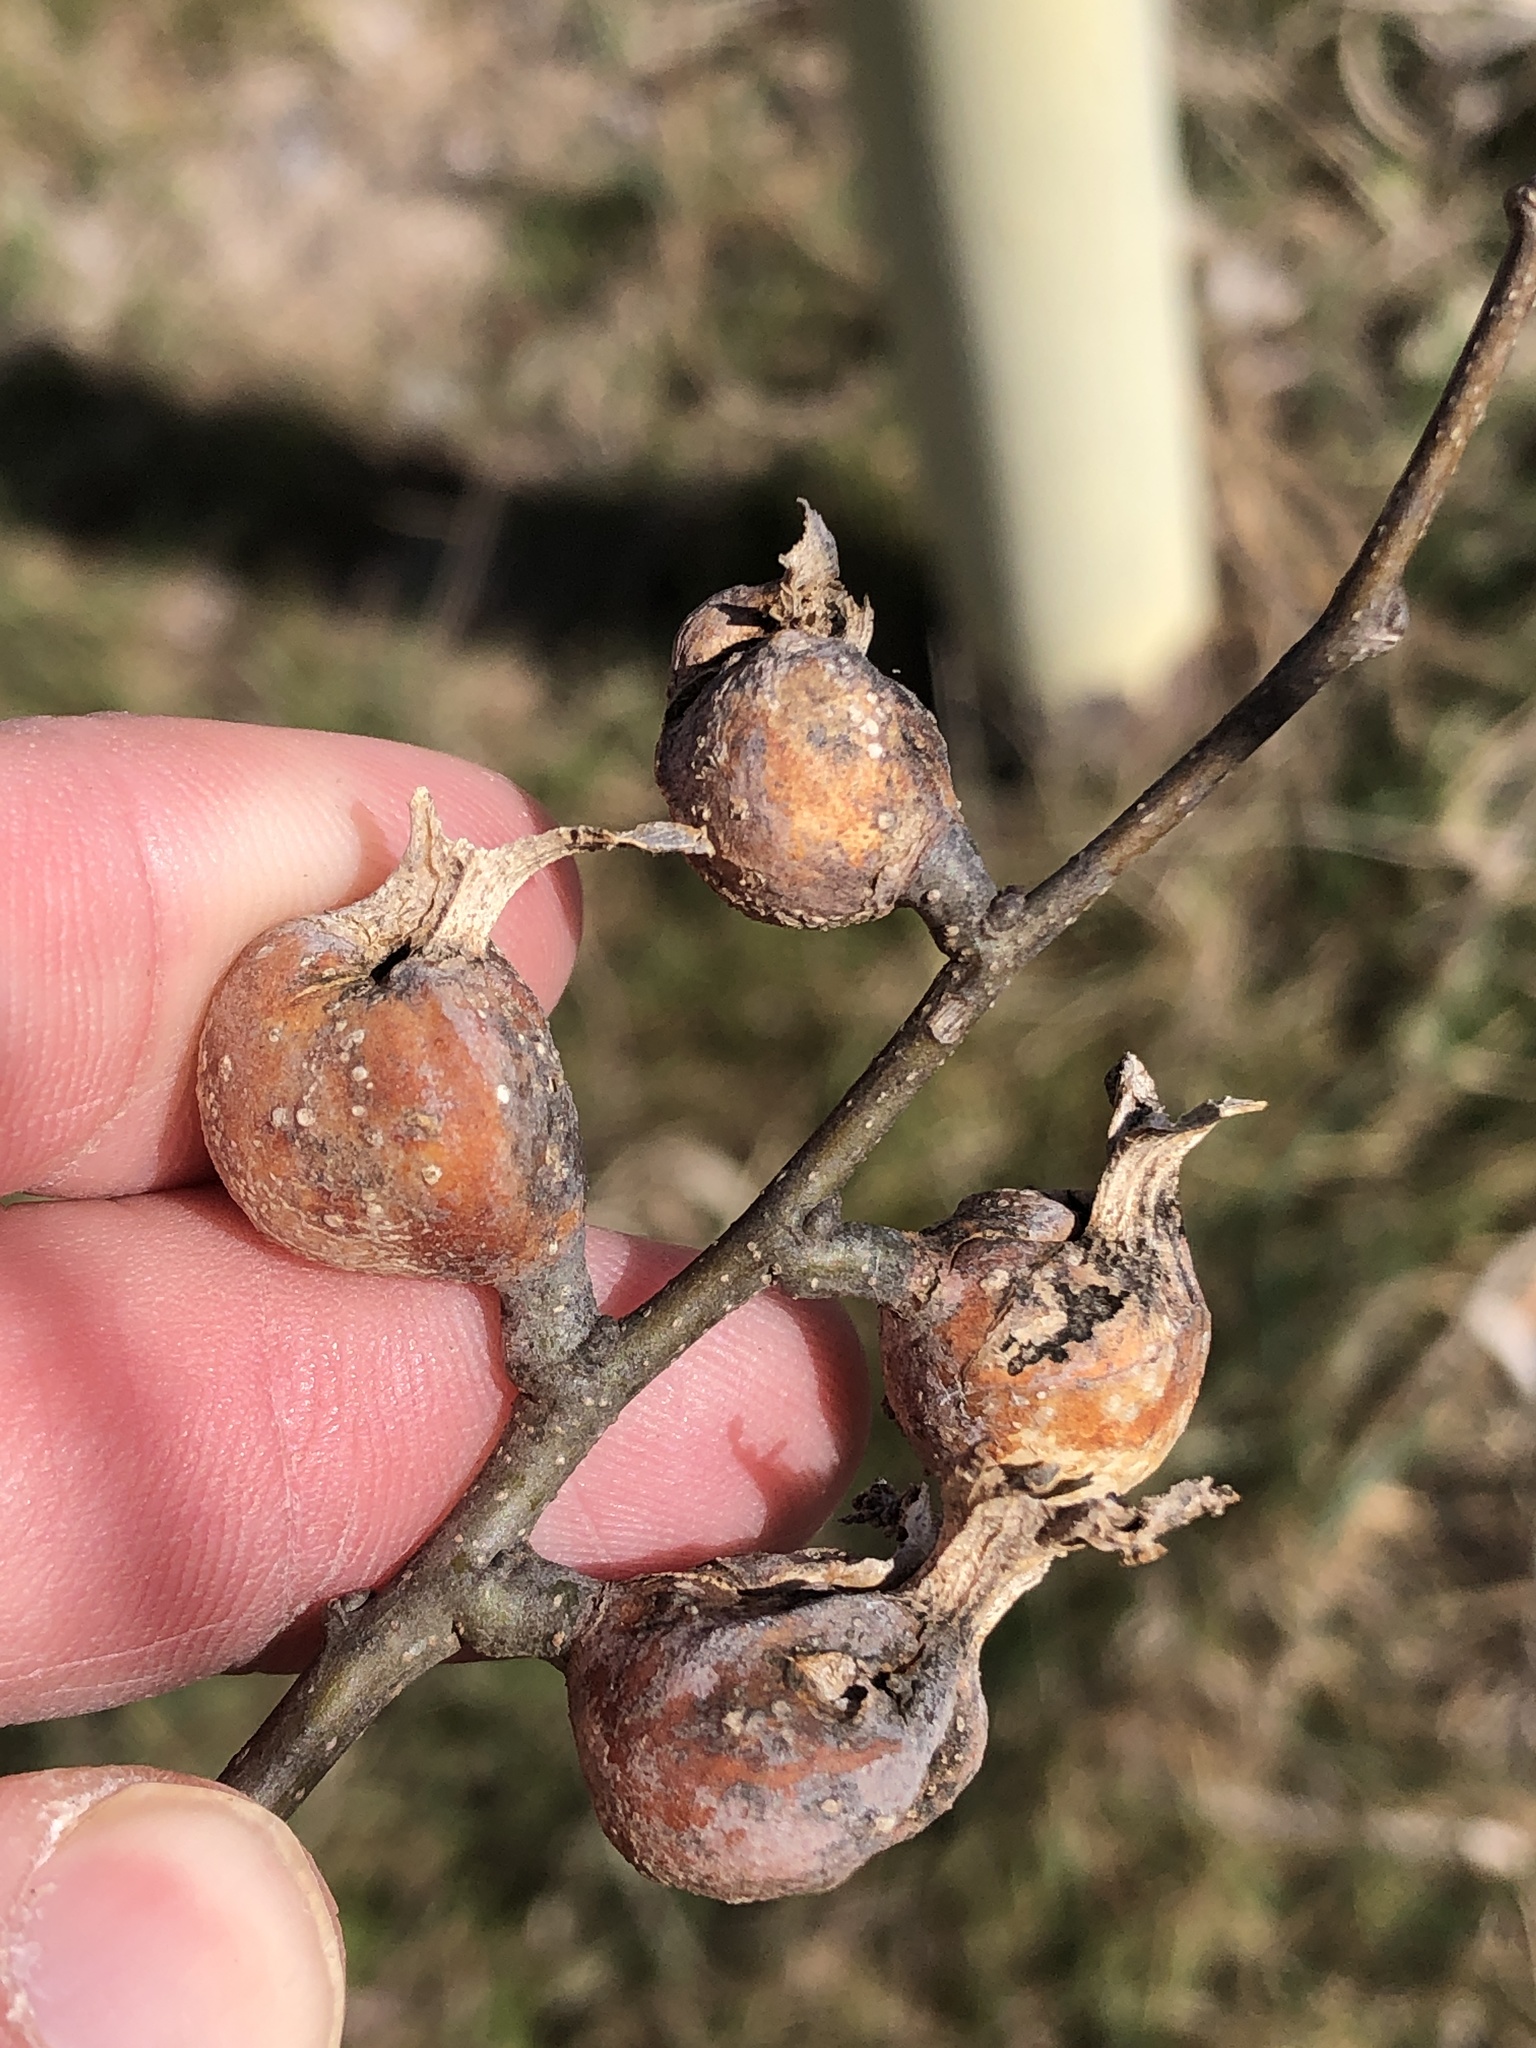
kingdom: Animalia
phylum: Arthropoda
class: Insecta
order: Hemiptera
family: Aphalaridae
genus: Pachypsylla
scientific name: Pachypsylla venusta
